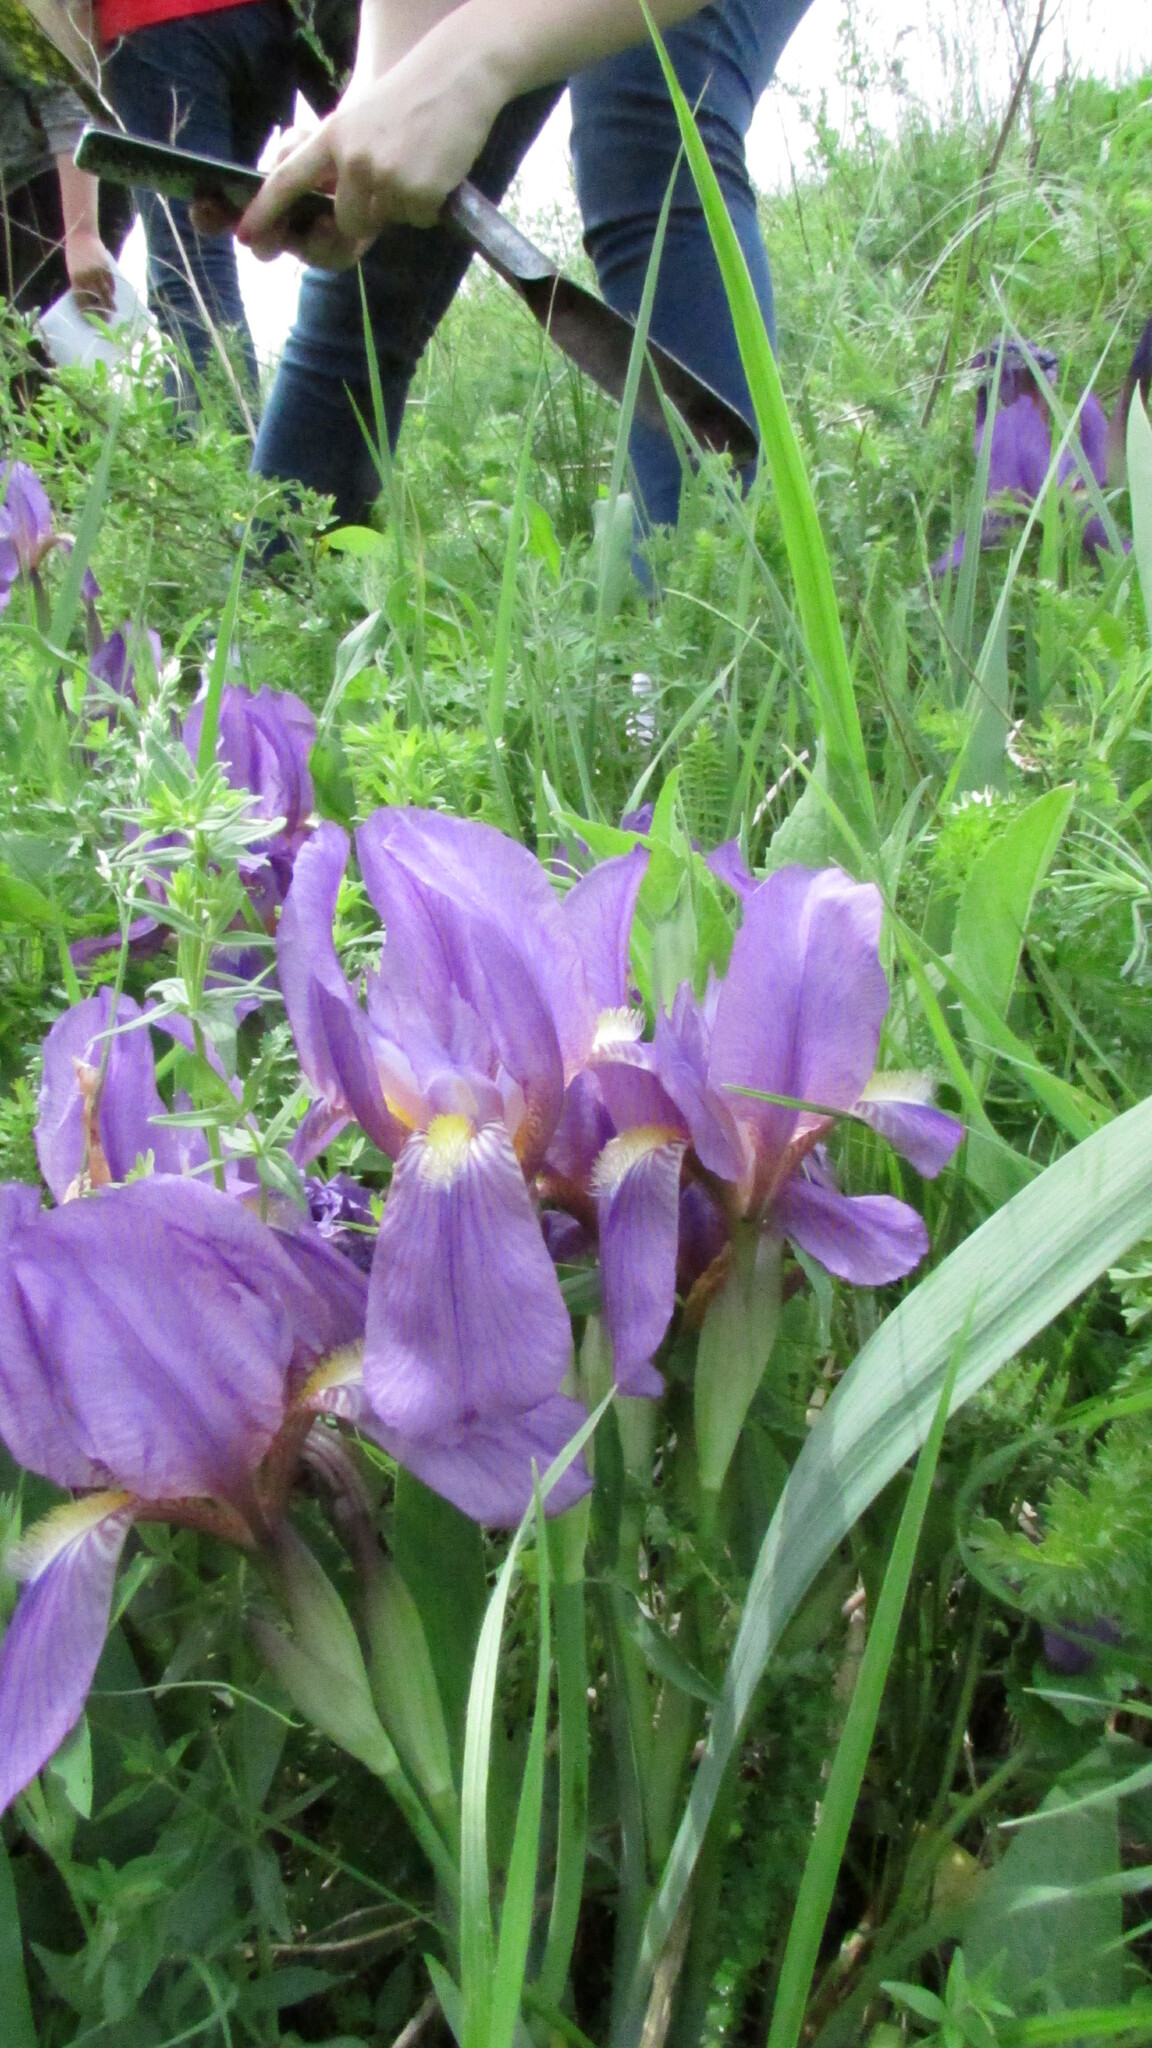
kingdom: Plantae
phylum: Tracheophyta
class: Liliopsida
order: Asparagales
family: Iridaceae
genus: Iris
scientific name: Iris aphylla
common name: Stool iris
